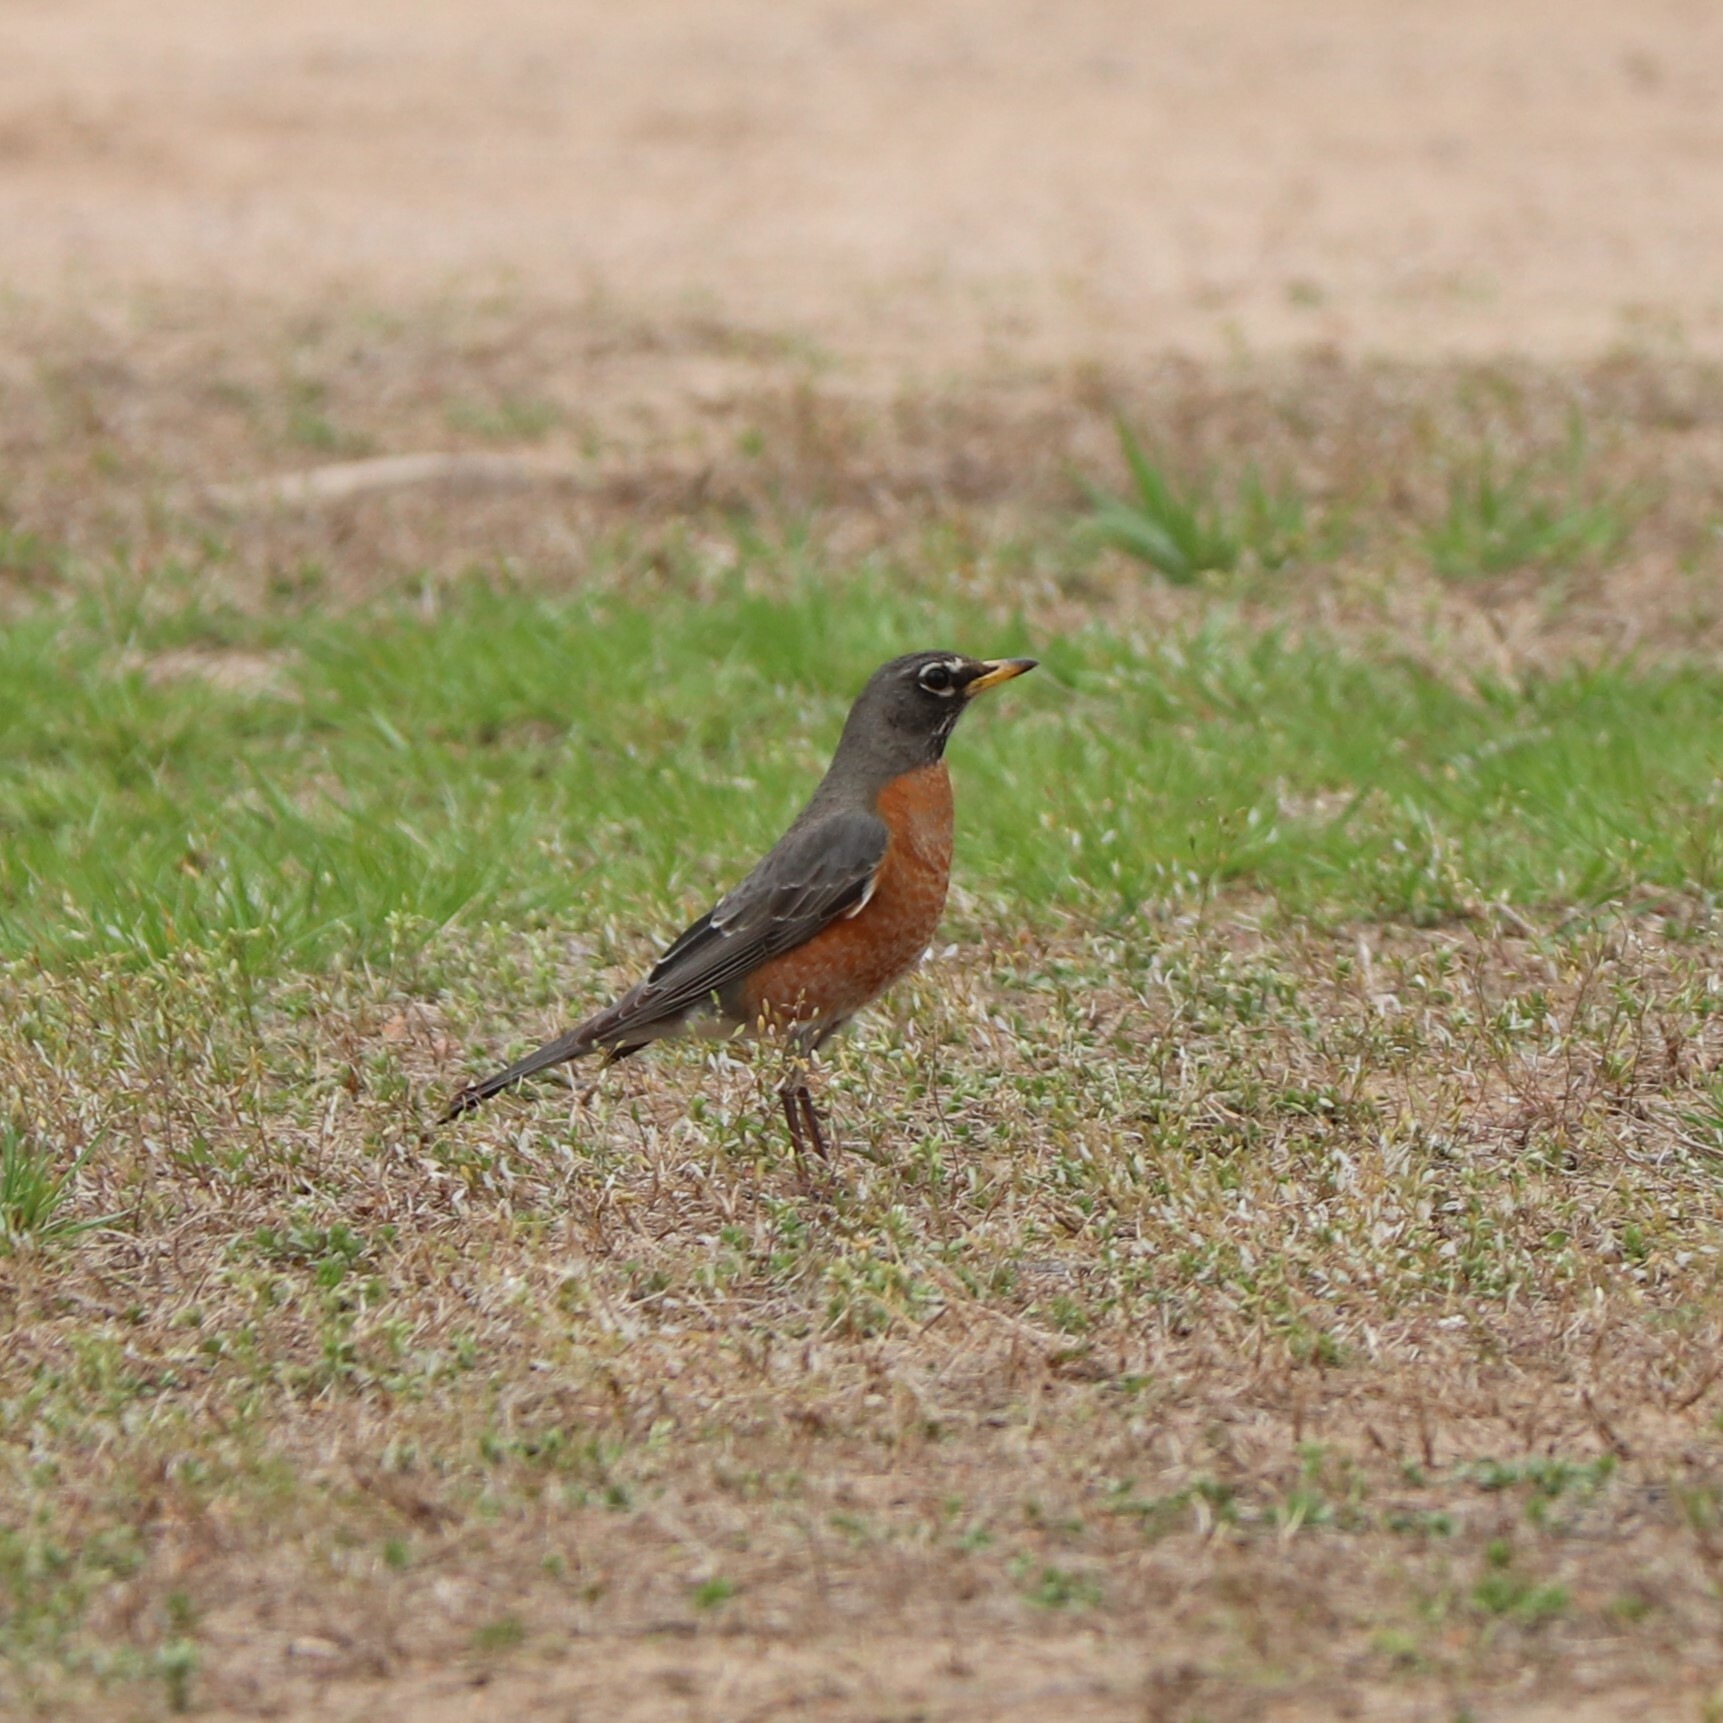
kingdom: Animalia
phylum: Chordata
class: Aves
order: Passeriformes
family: Turdidae
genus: Turdus
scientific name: Turdus migratorius
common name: American robin
